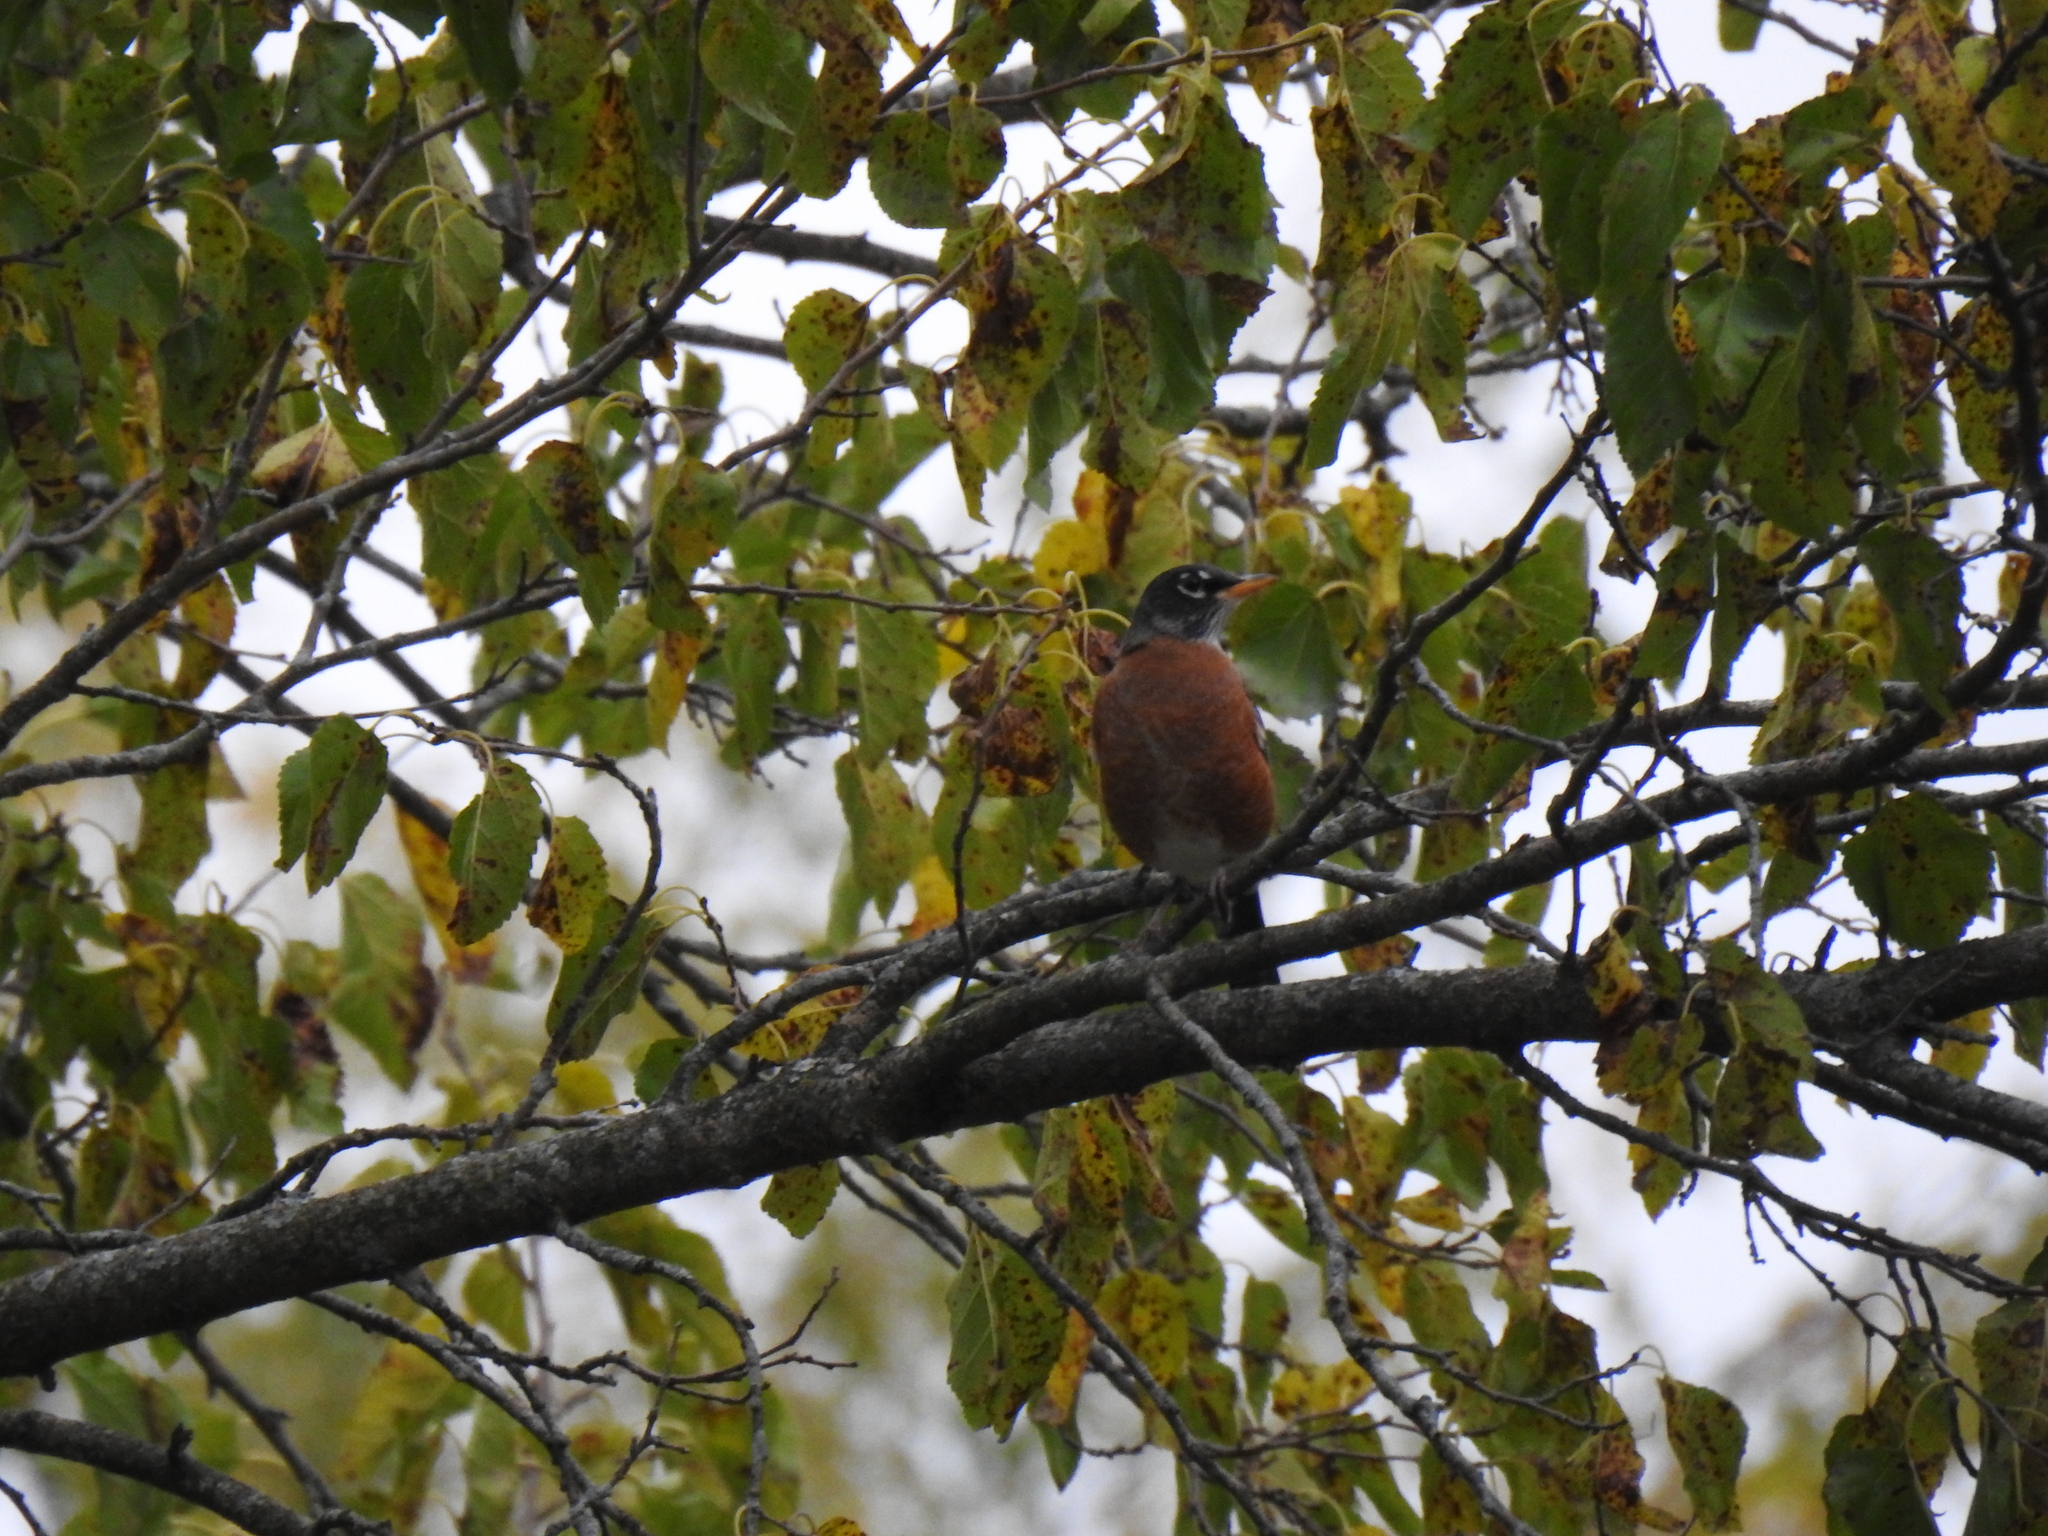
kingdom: Animalia
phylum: Chordata
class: Aves
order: Passeriformes
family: Turdidae
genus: Turdus
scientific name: Turdus migratorius
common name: American robin
